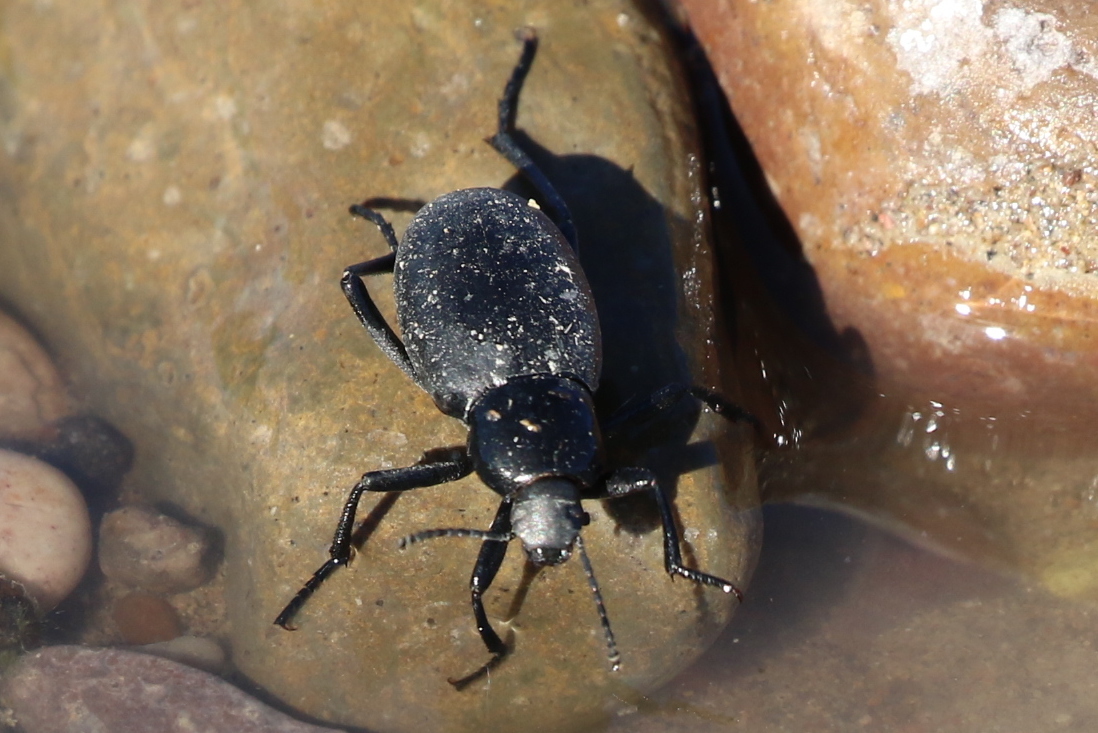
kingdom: Animalia
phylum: Arthropoda
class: Insecta
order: Coleoptera
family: Tenebrionidae
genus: Eleodes
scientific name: Eleodes carbonaria
